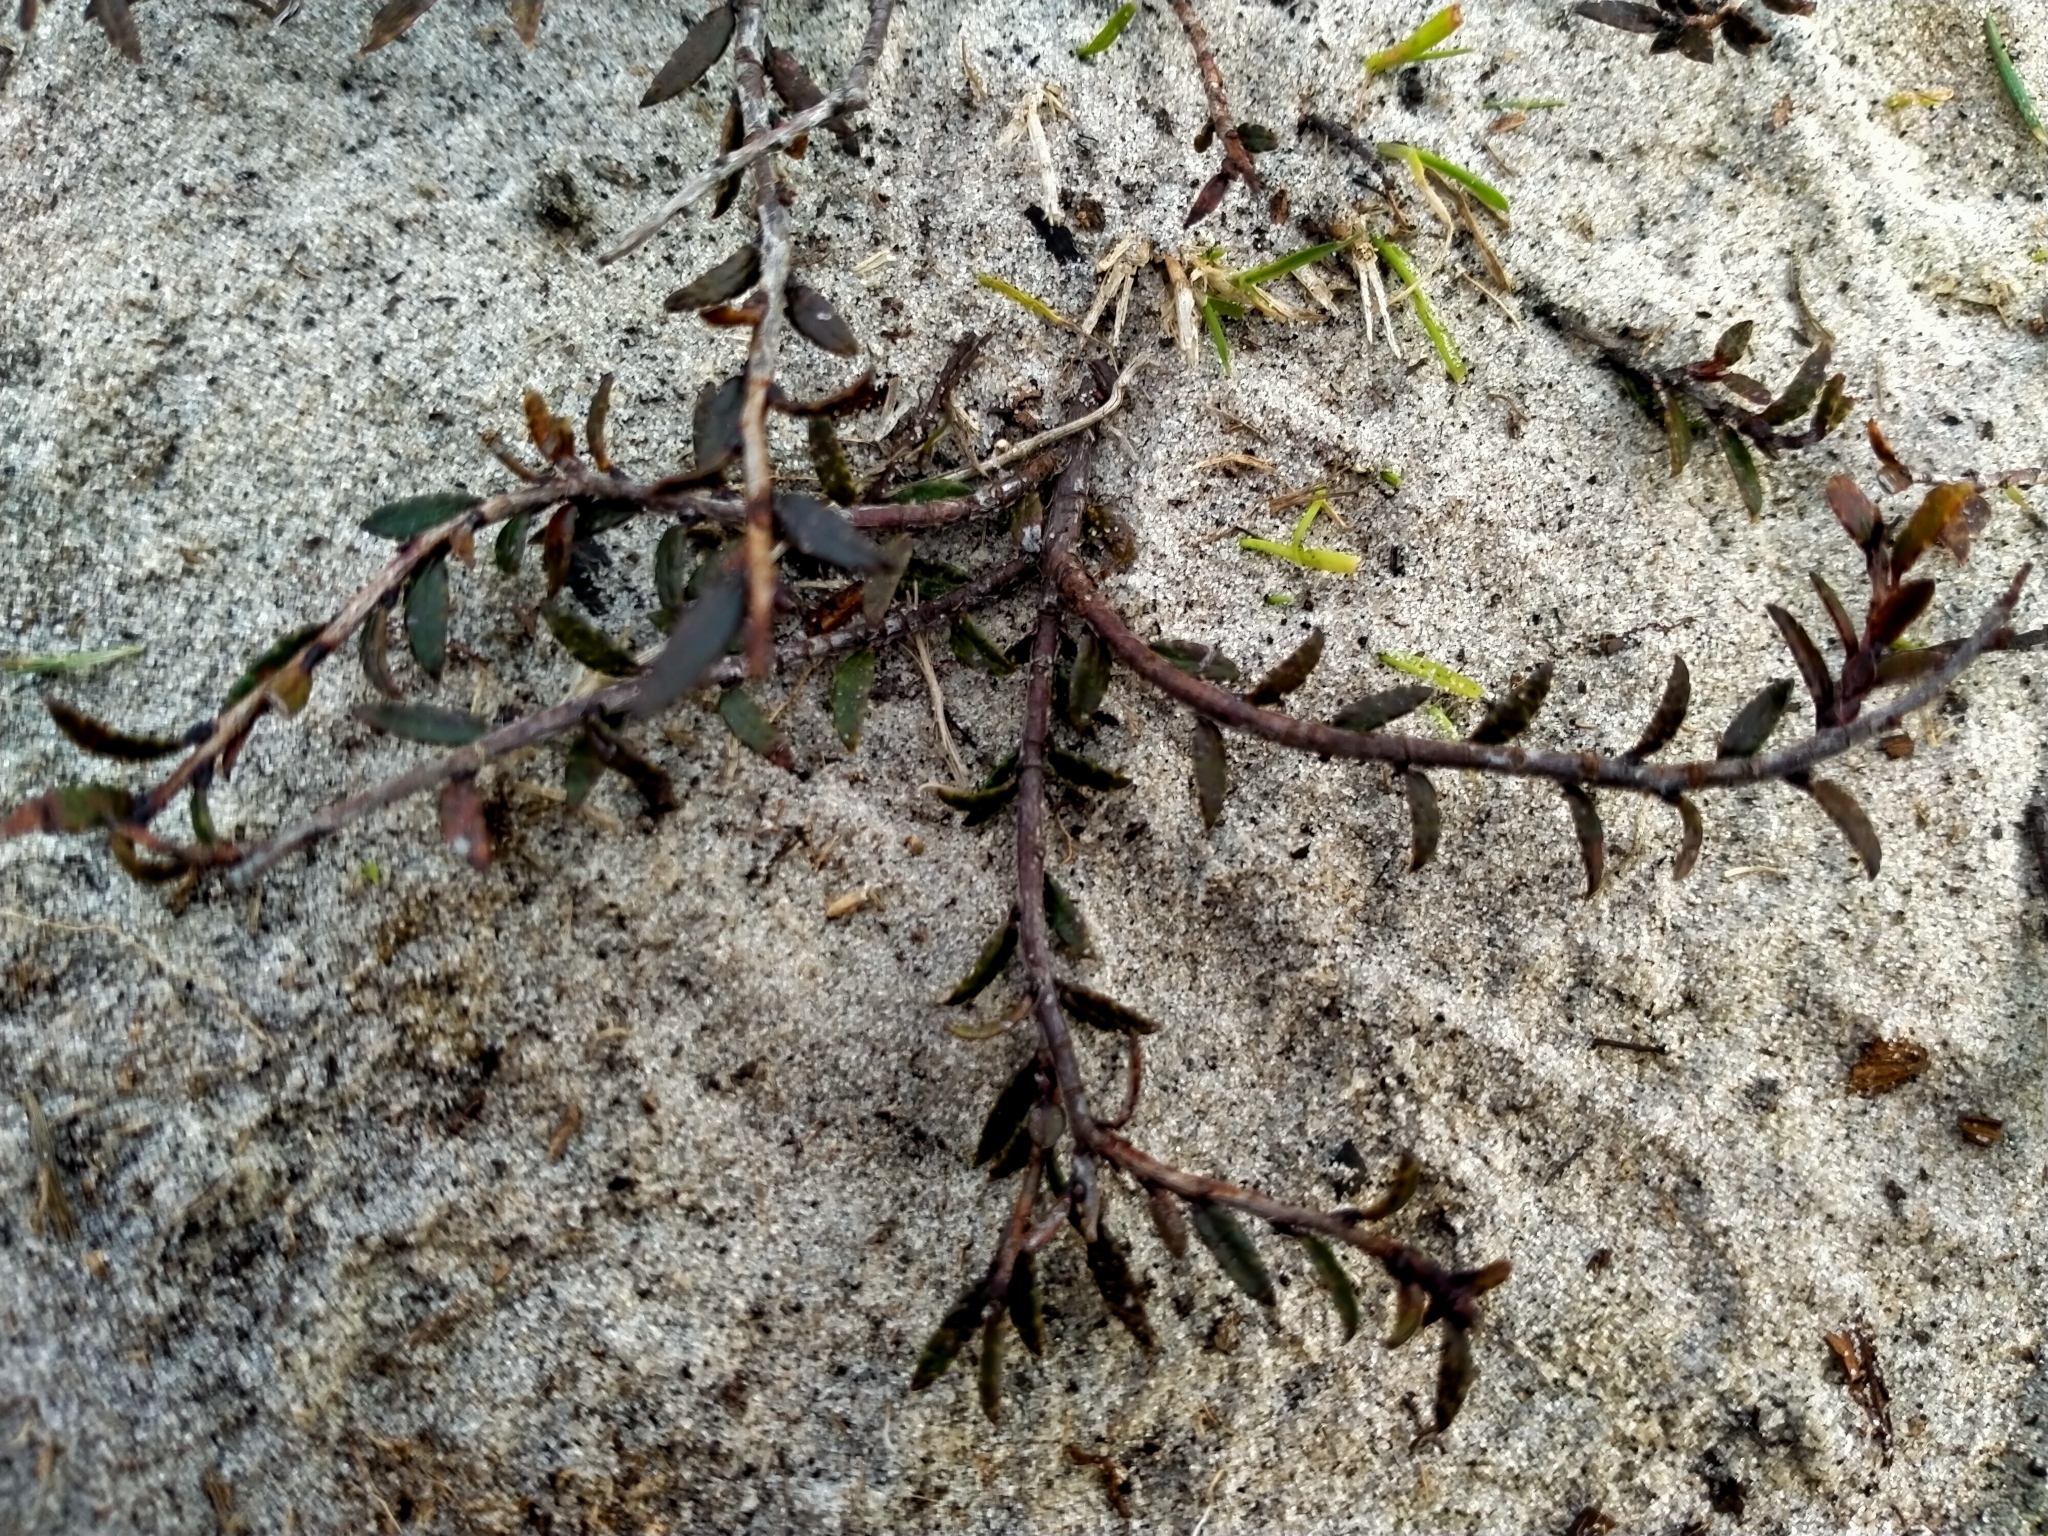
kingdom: Plantae
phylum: Tracheophyta
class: Magnoliopsida
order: Ericales
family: Ericaceae
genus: Gaultheria
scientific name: Gaultheria macrostigma
